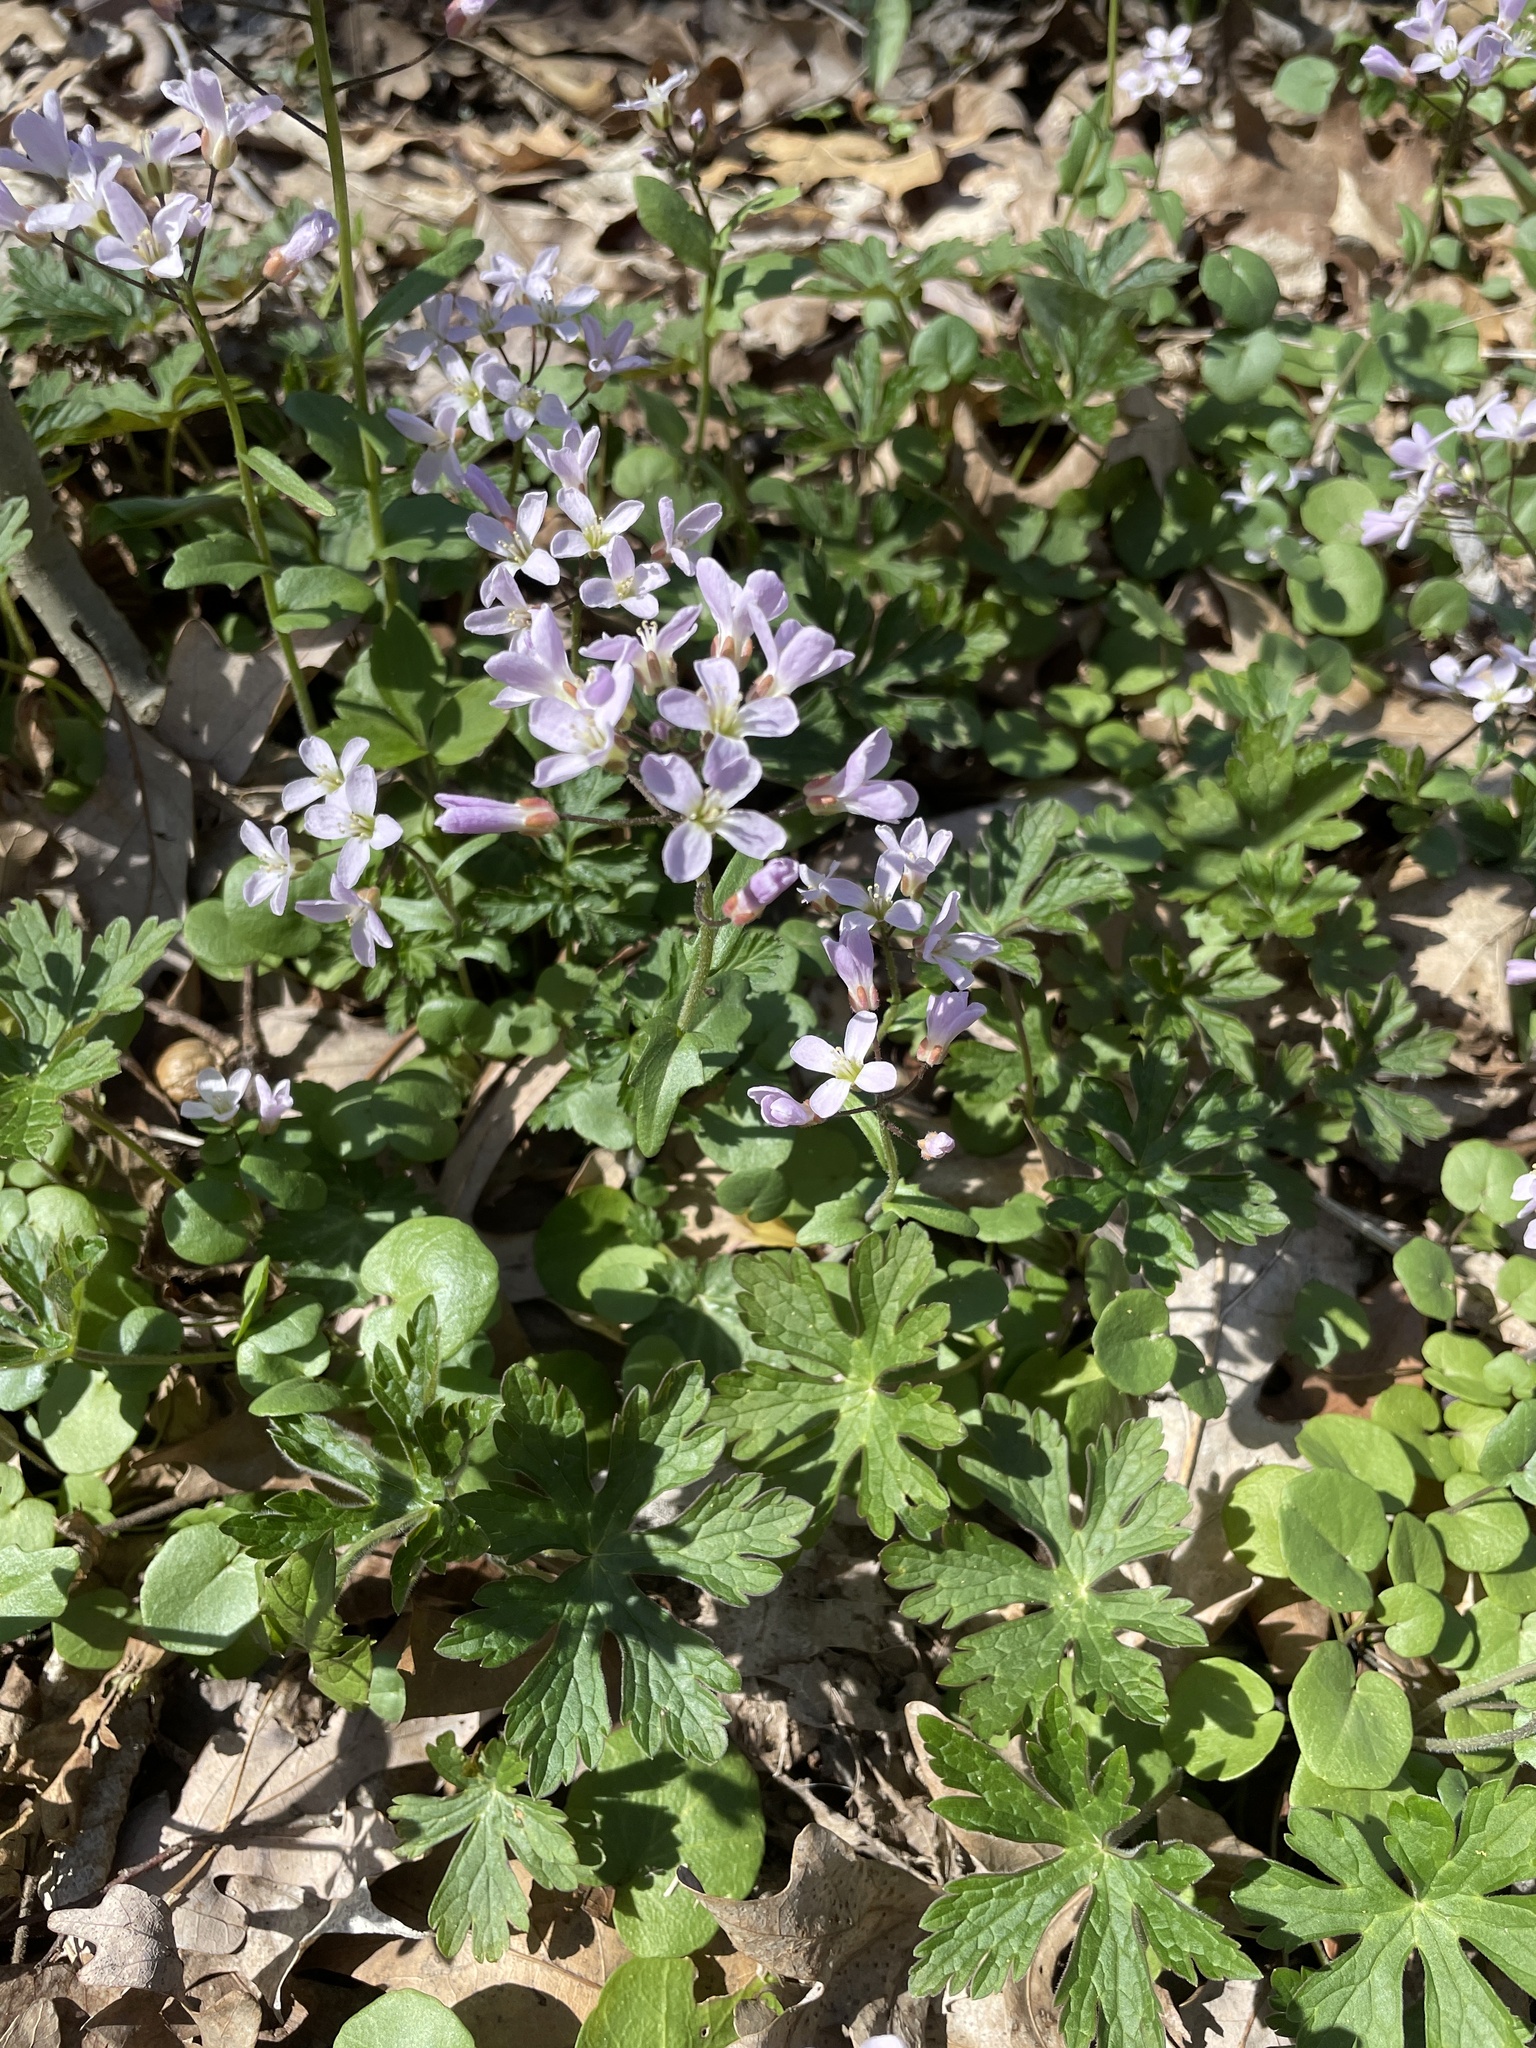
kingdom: Plantae
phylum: Tracheophyta
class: Magnoliopsida
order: Brassicales
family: Brassicaceae
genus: Cardamine
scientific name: Cardamine douglassii
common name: Purple cress
